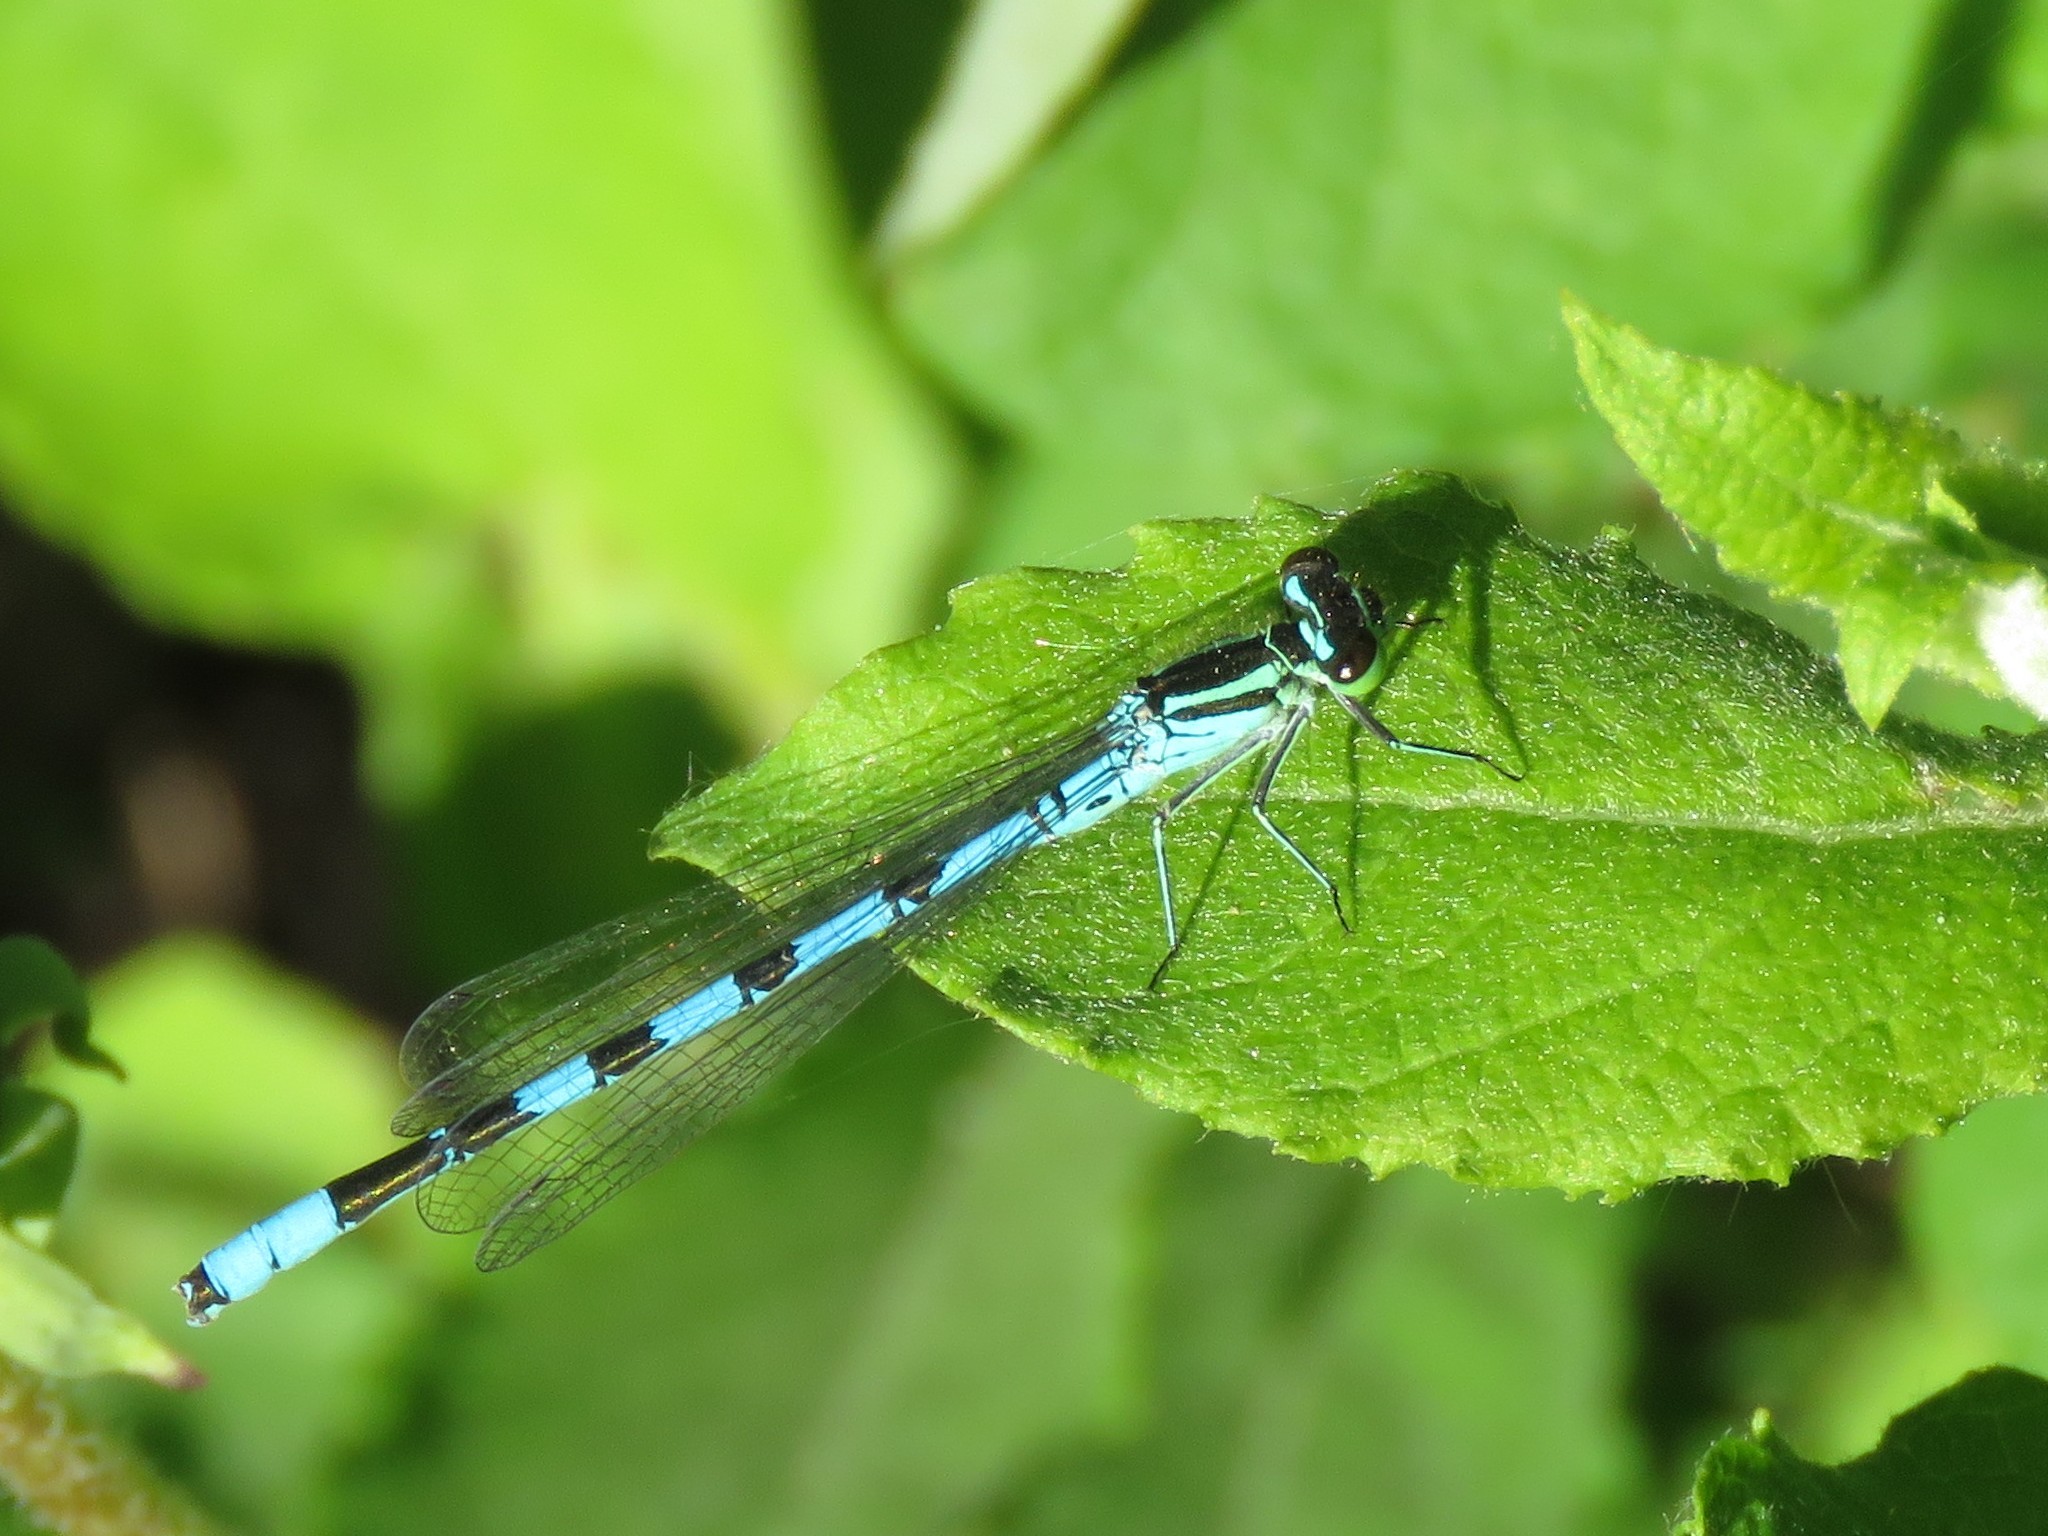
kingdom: Animalia
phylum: Arthropoda
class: Insecta
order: Odonata
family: Coenagrionidae
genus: Coenagrion
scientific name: Coenagrion hastulatum
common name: Spearhead bluet
